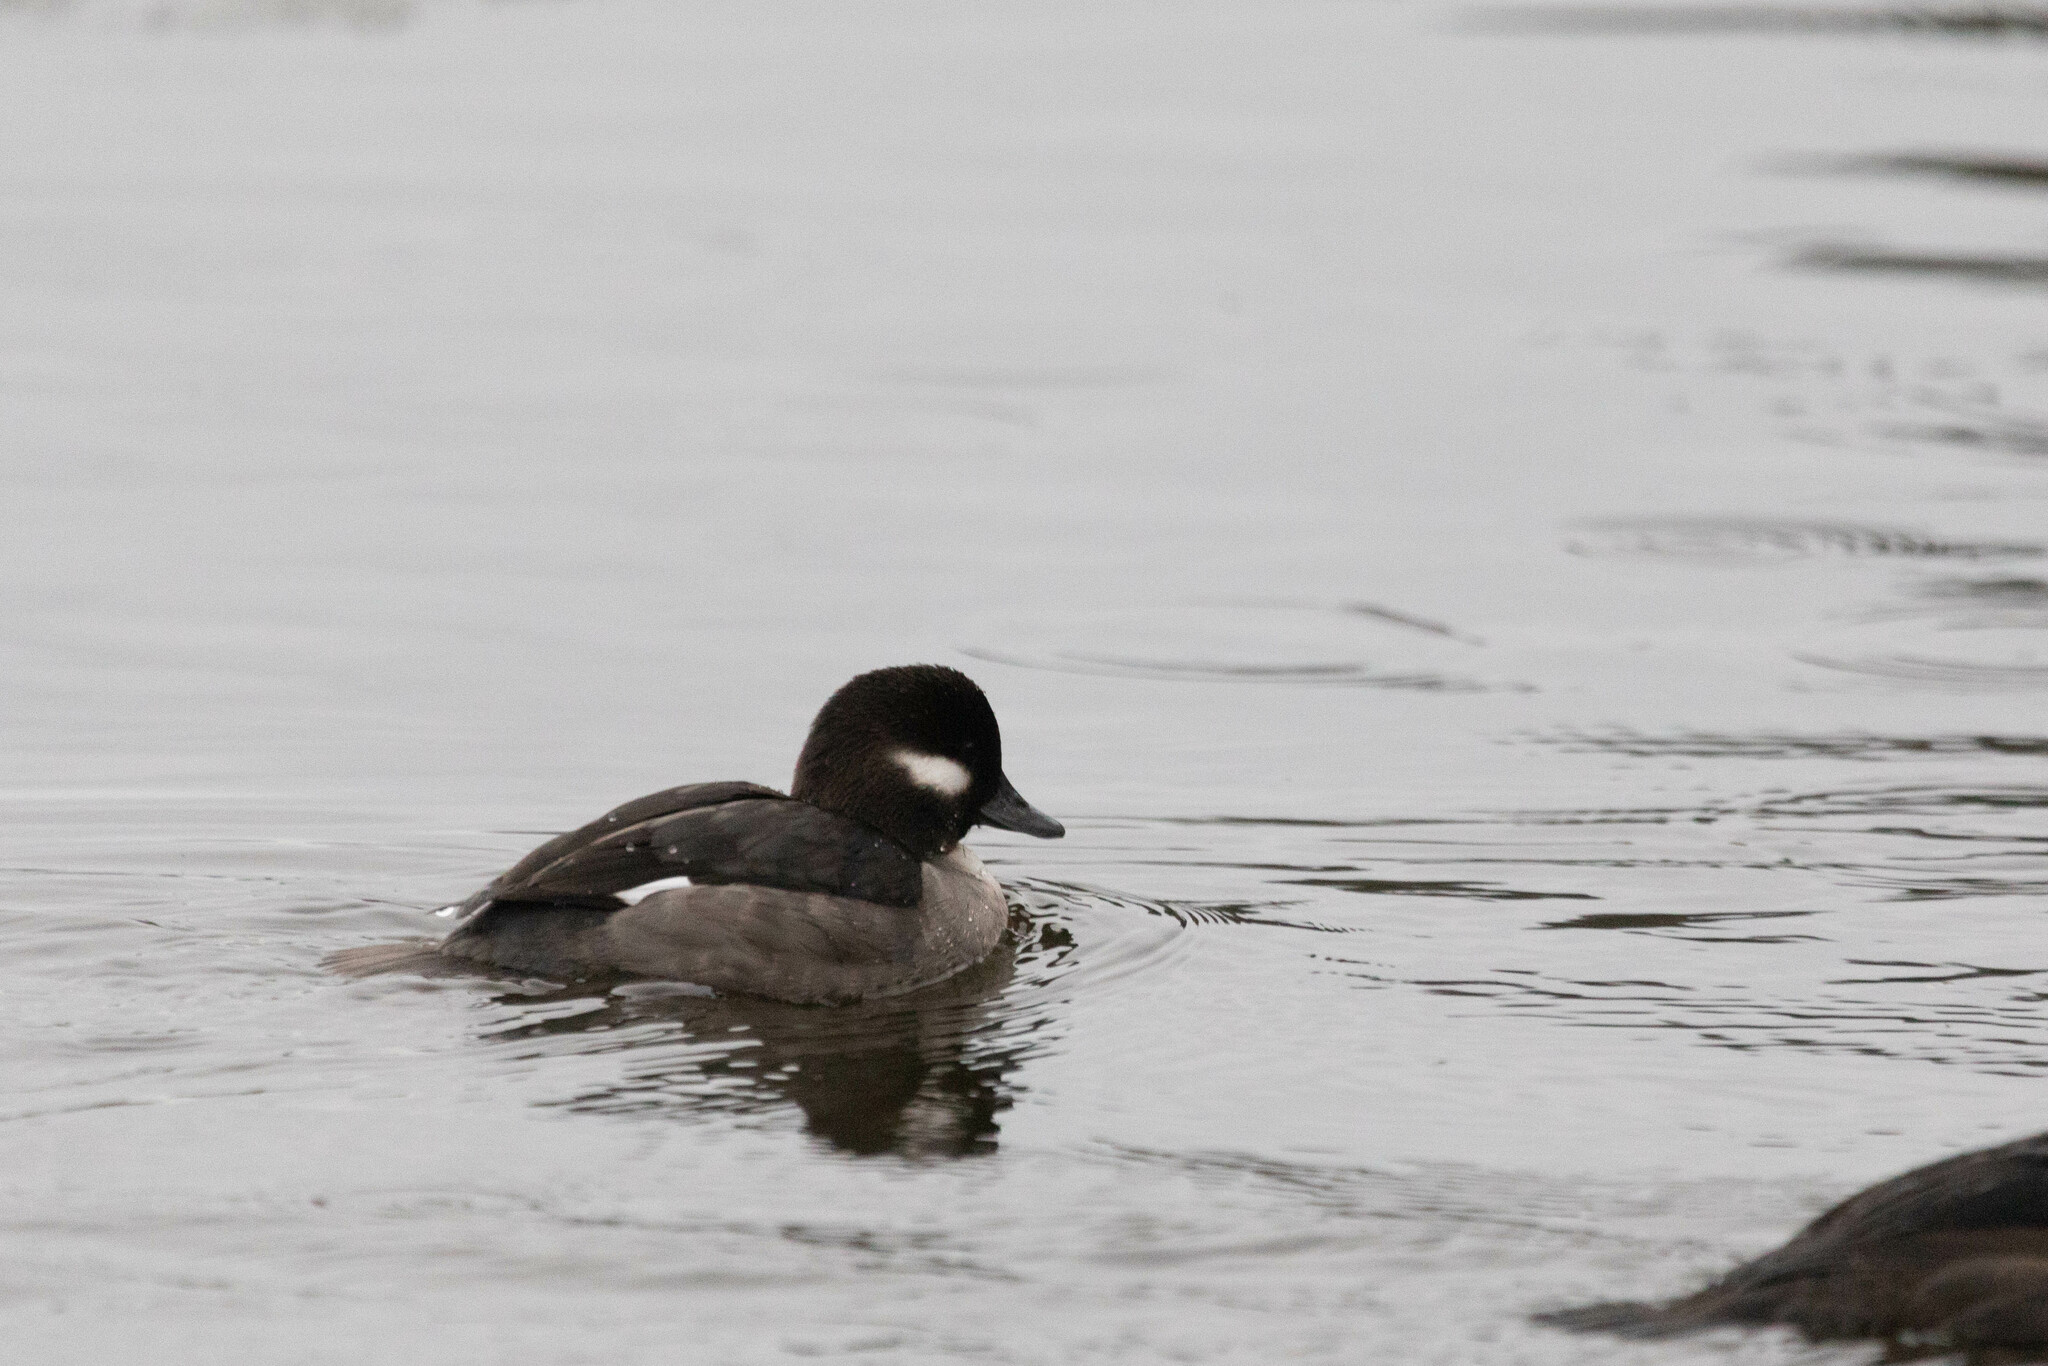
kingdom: Animalia
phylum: Chordata
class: Aves
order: Anseriformes
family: Anatidae
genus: Bucephala
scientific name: Bucephala albeola
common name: Bufflehead
